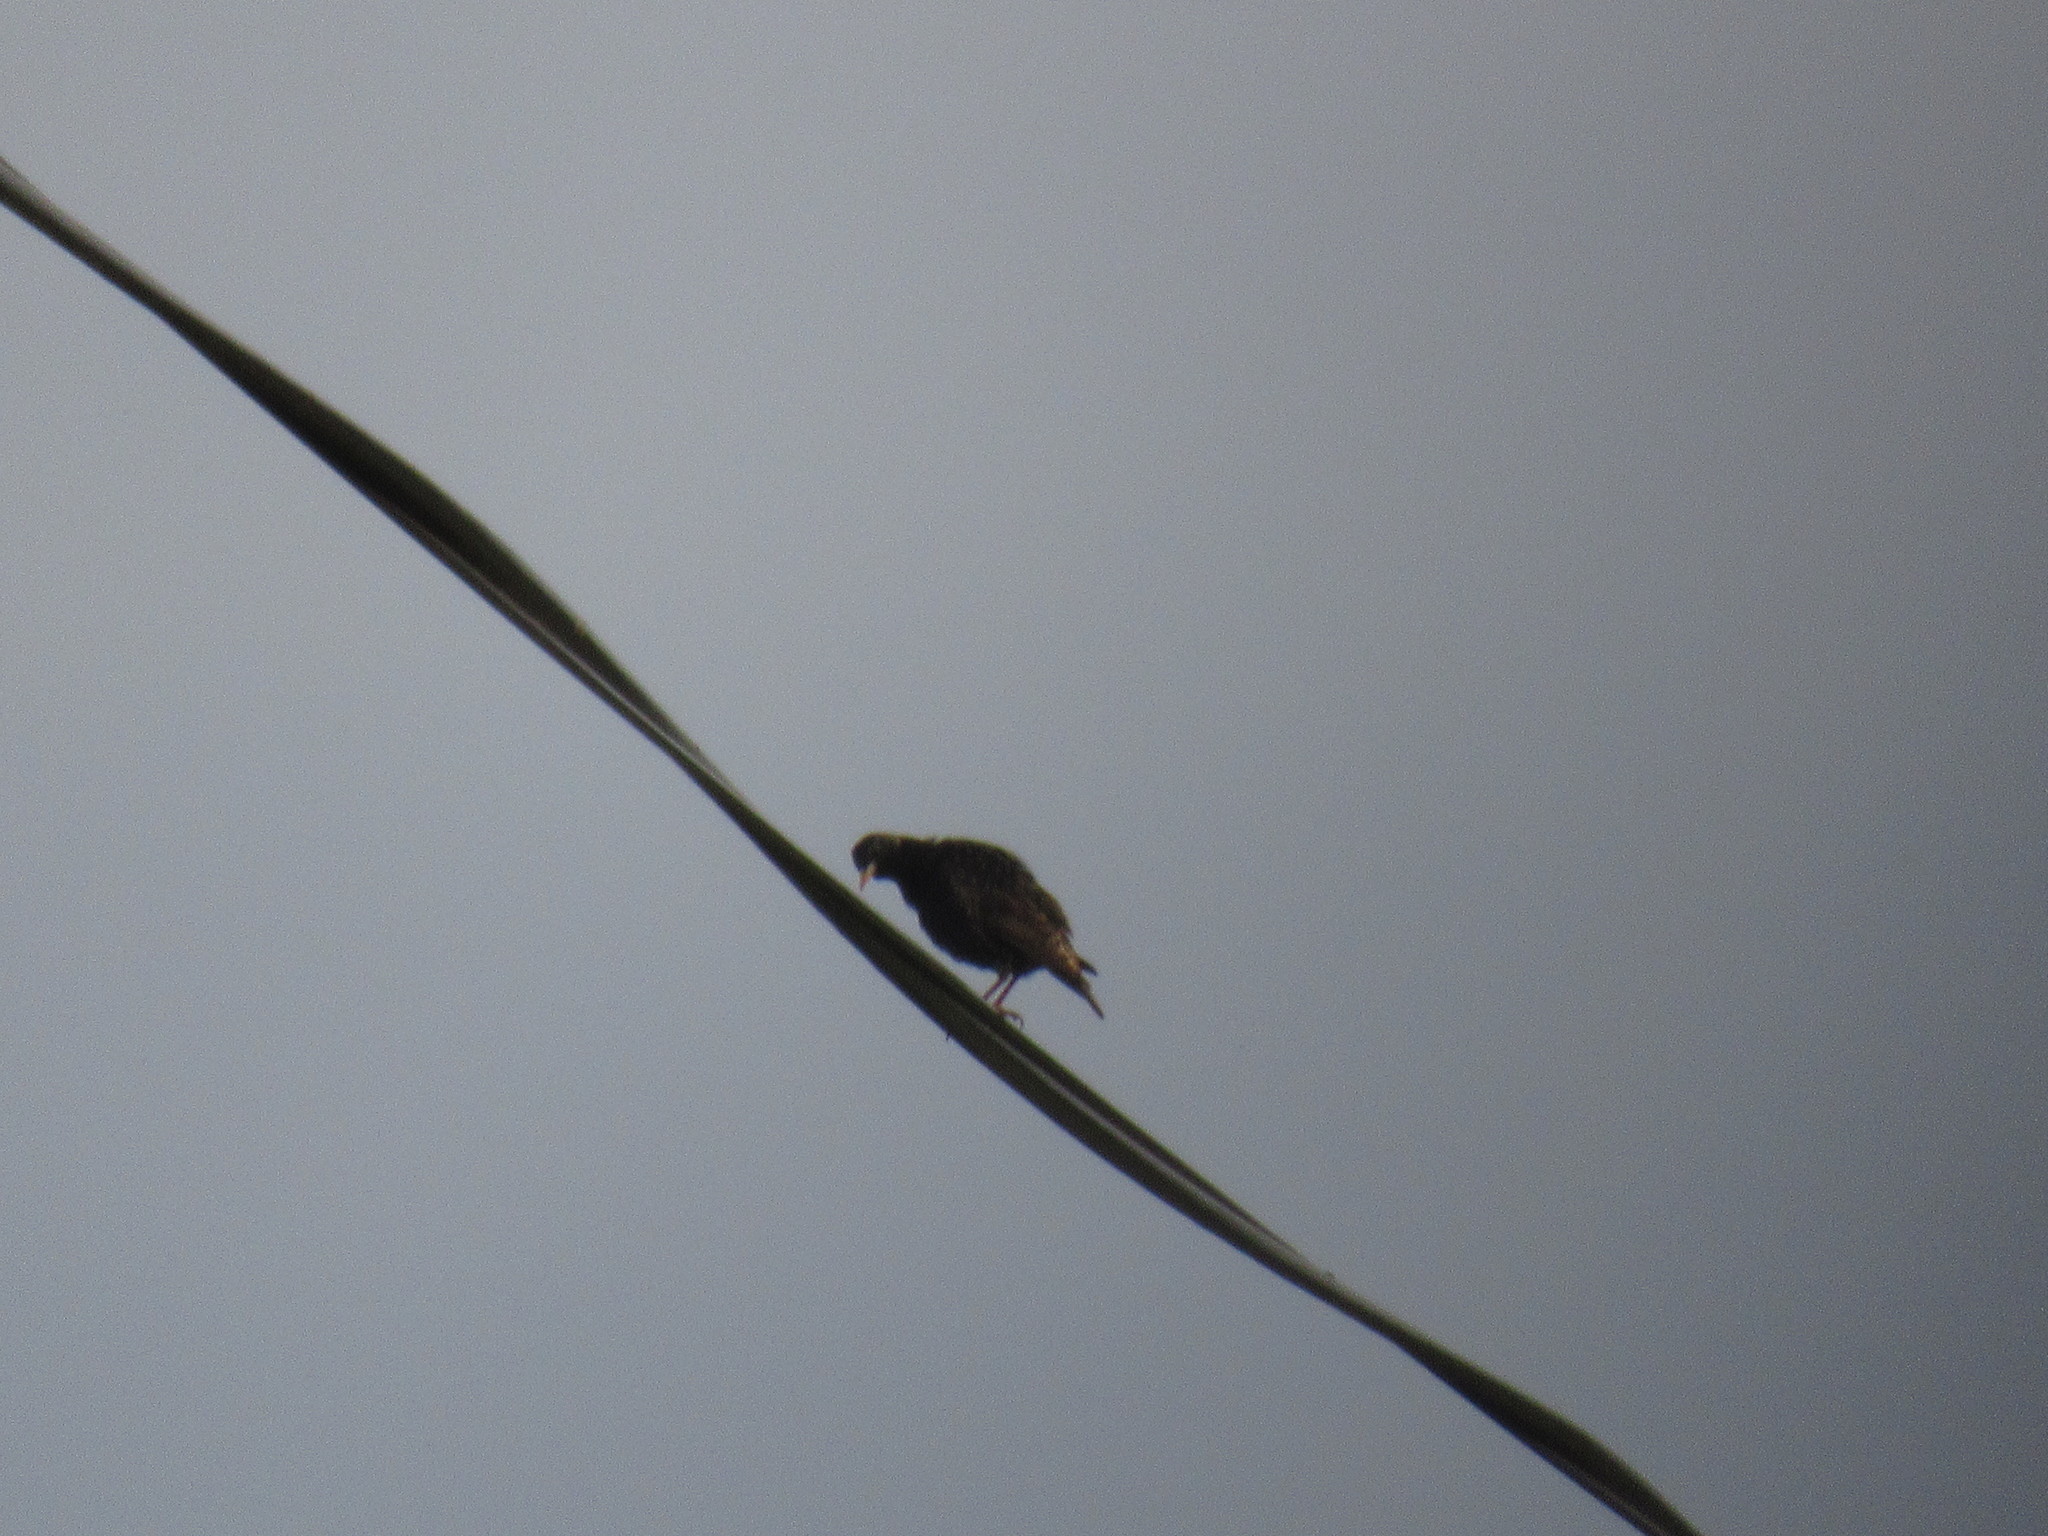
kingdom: Animalia
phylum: Chordata
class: Aves
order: Passeriformes
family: Sturnidae
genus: Sturnus
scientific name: Sturnus vulgaris
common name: Common starling
